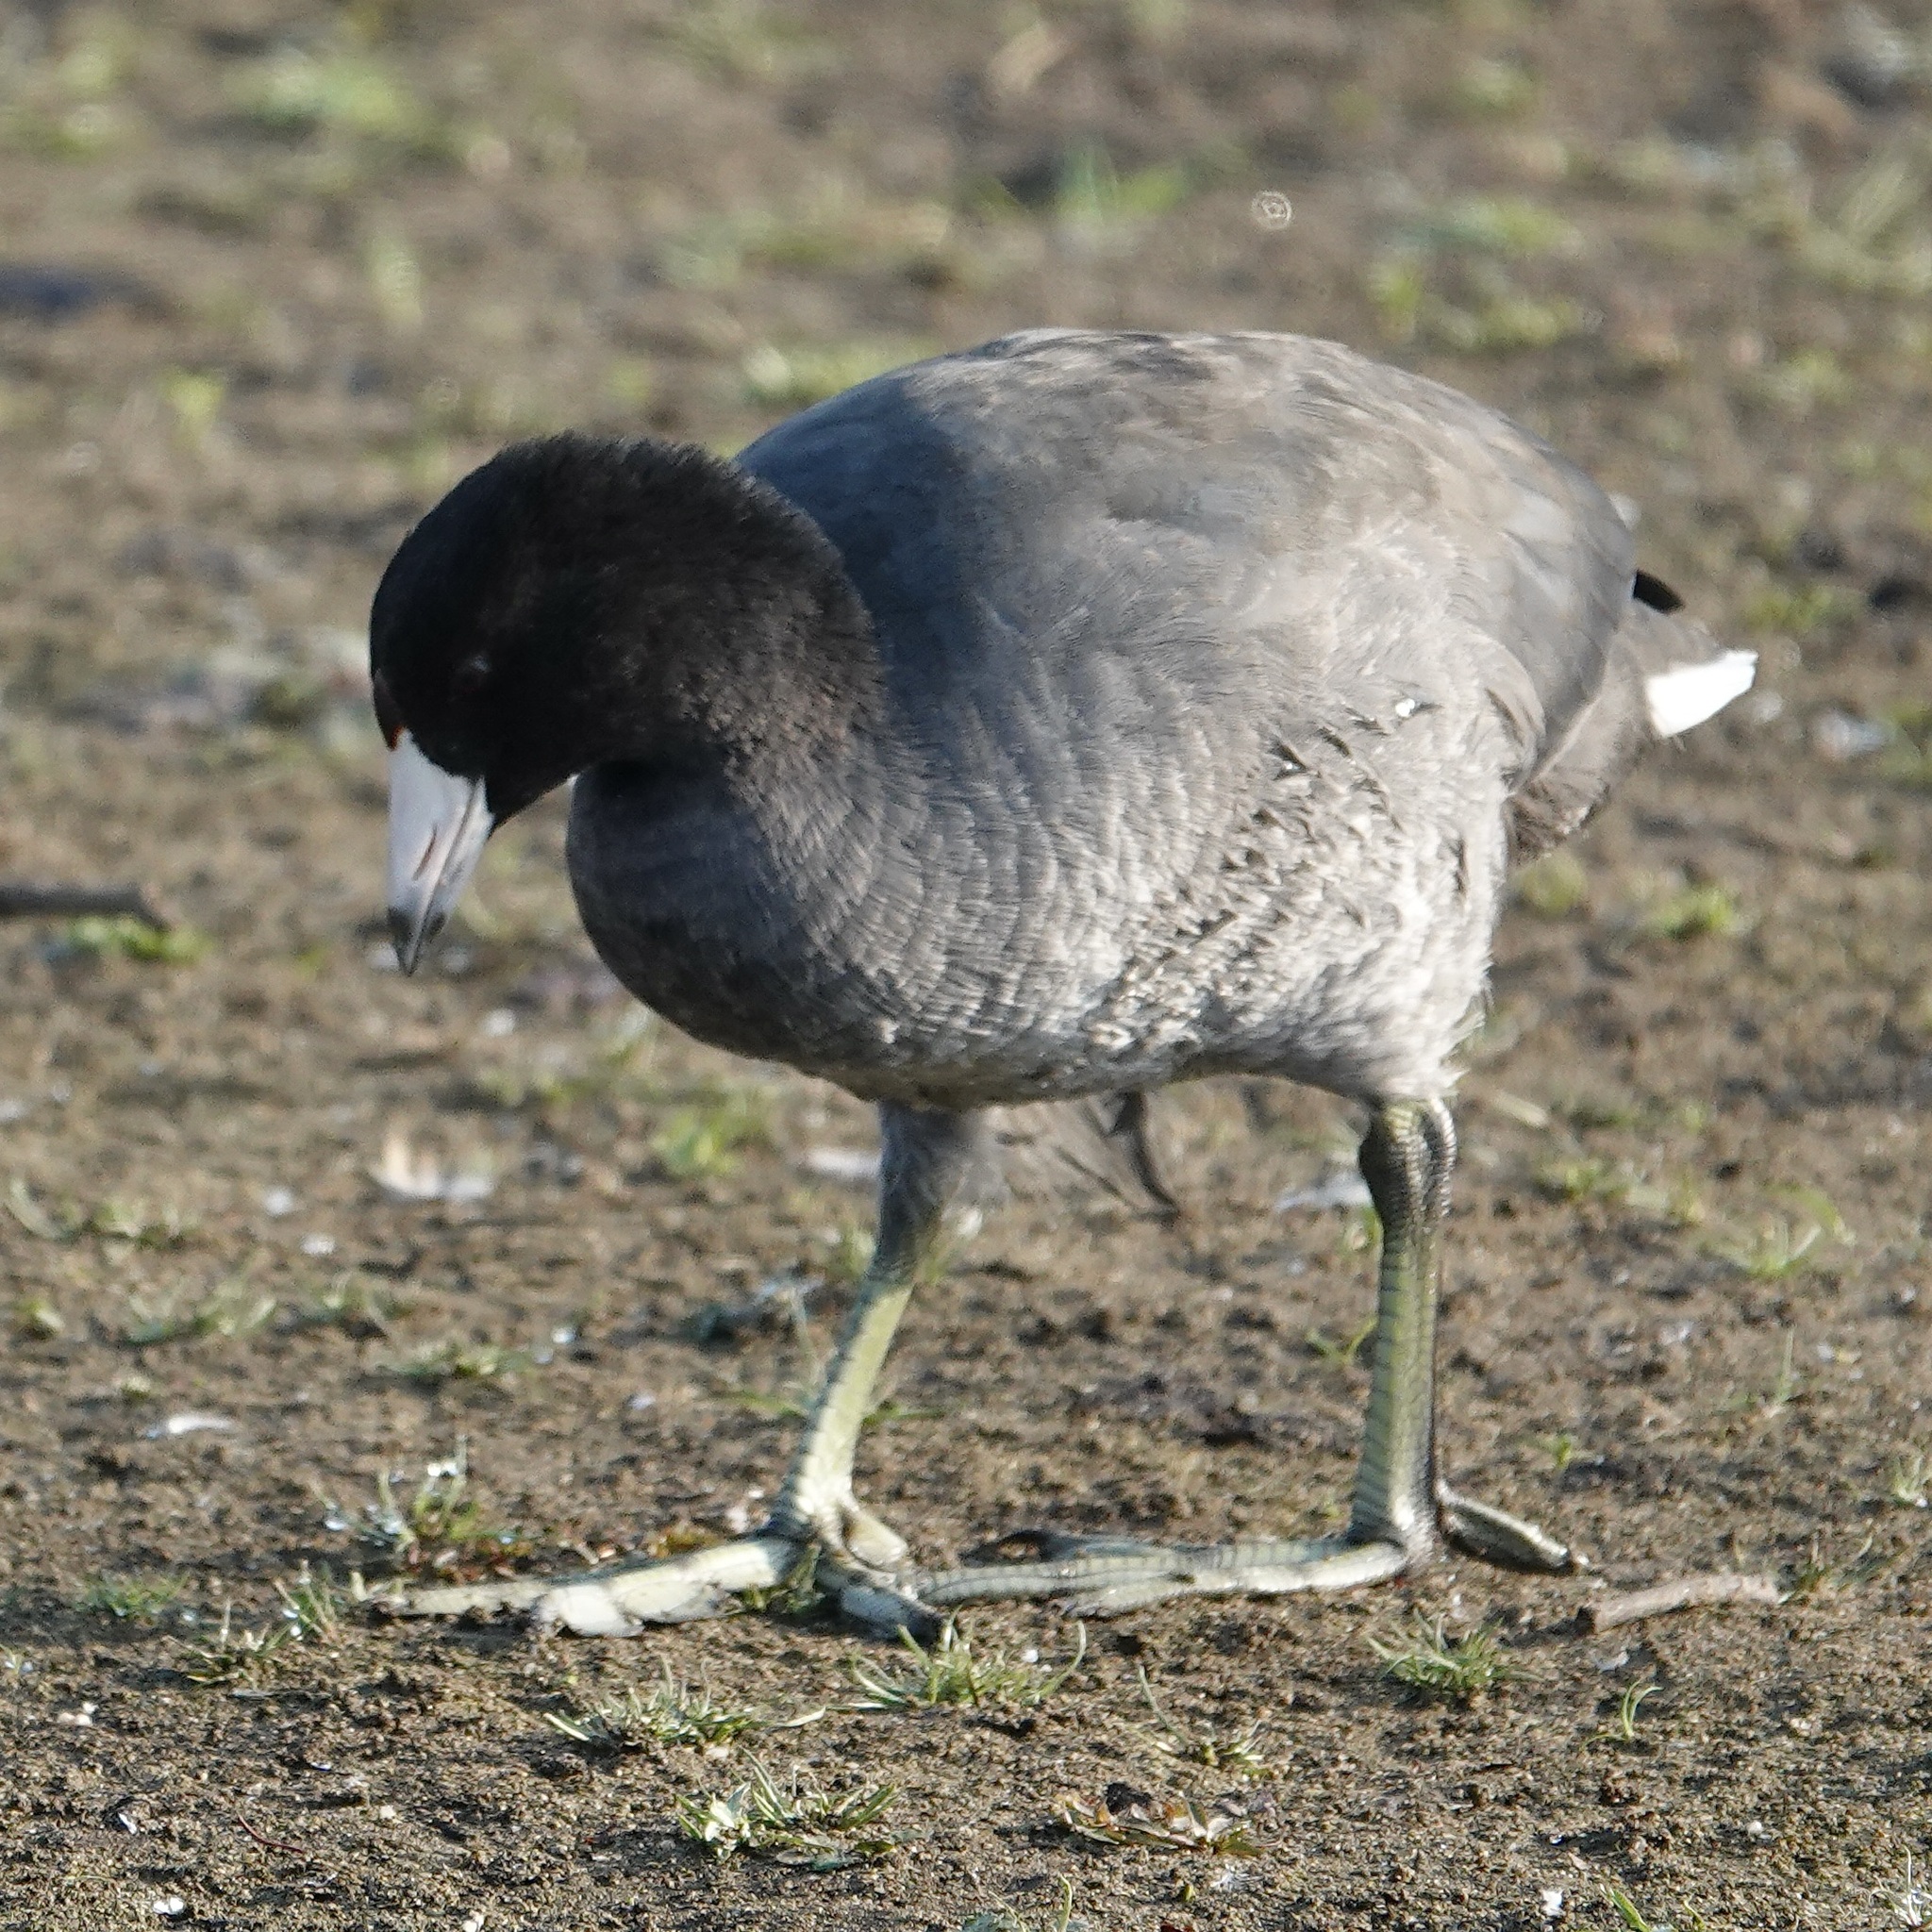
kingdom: Animalia
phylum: Chordata
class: Aves
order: Gruiformes
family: Rallidae
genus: Fulica
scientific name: Fulica americana
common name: American coot
